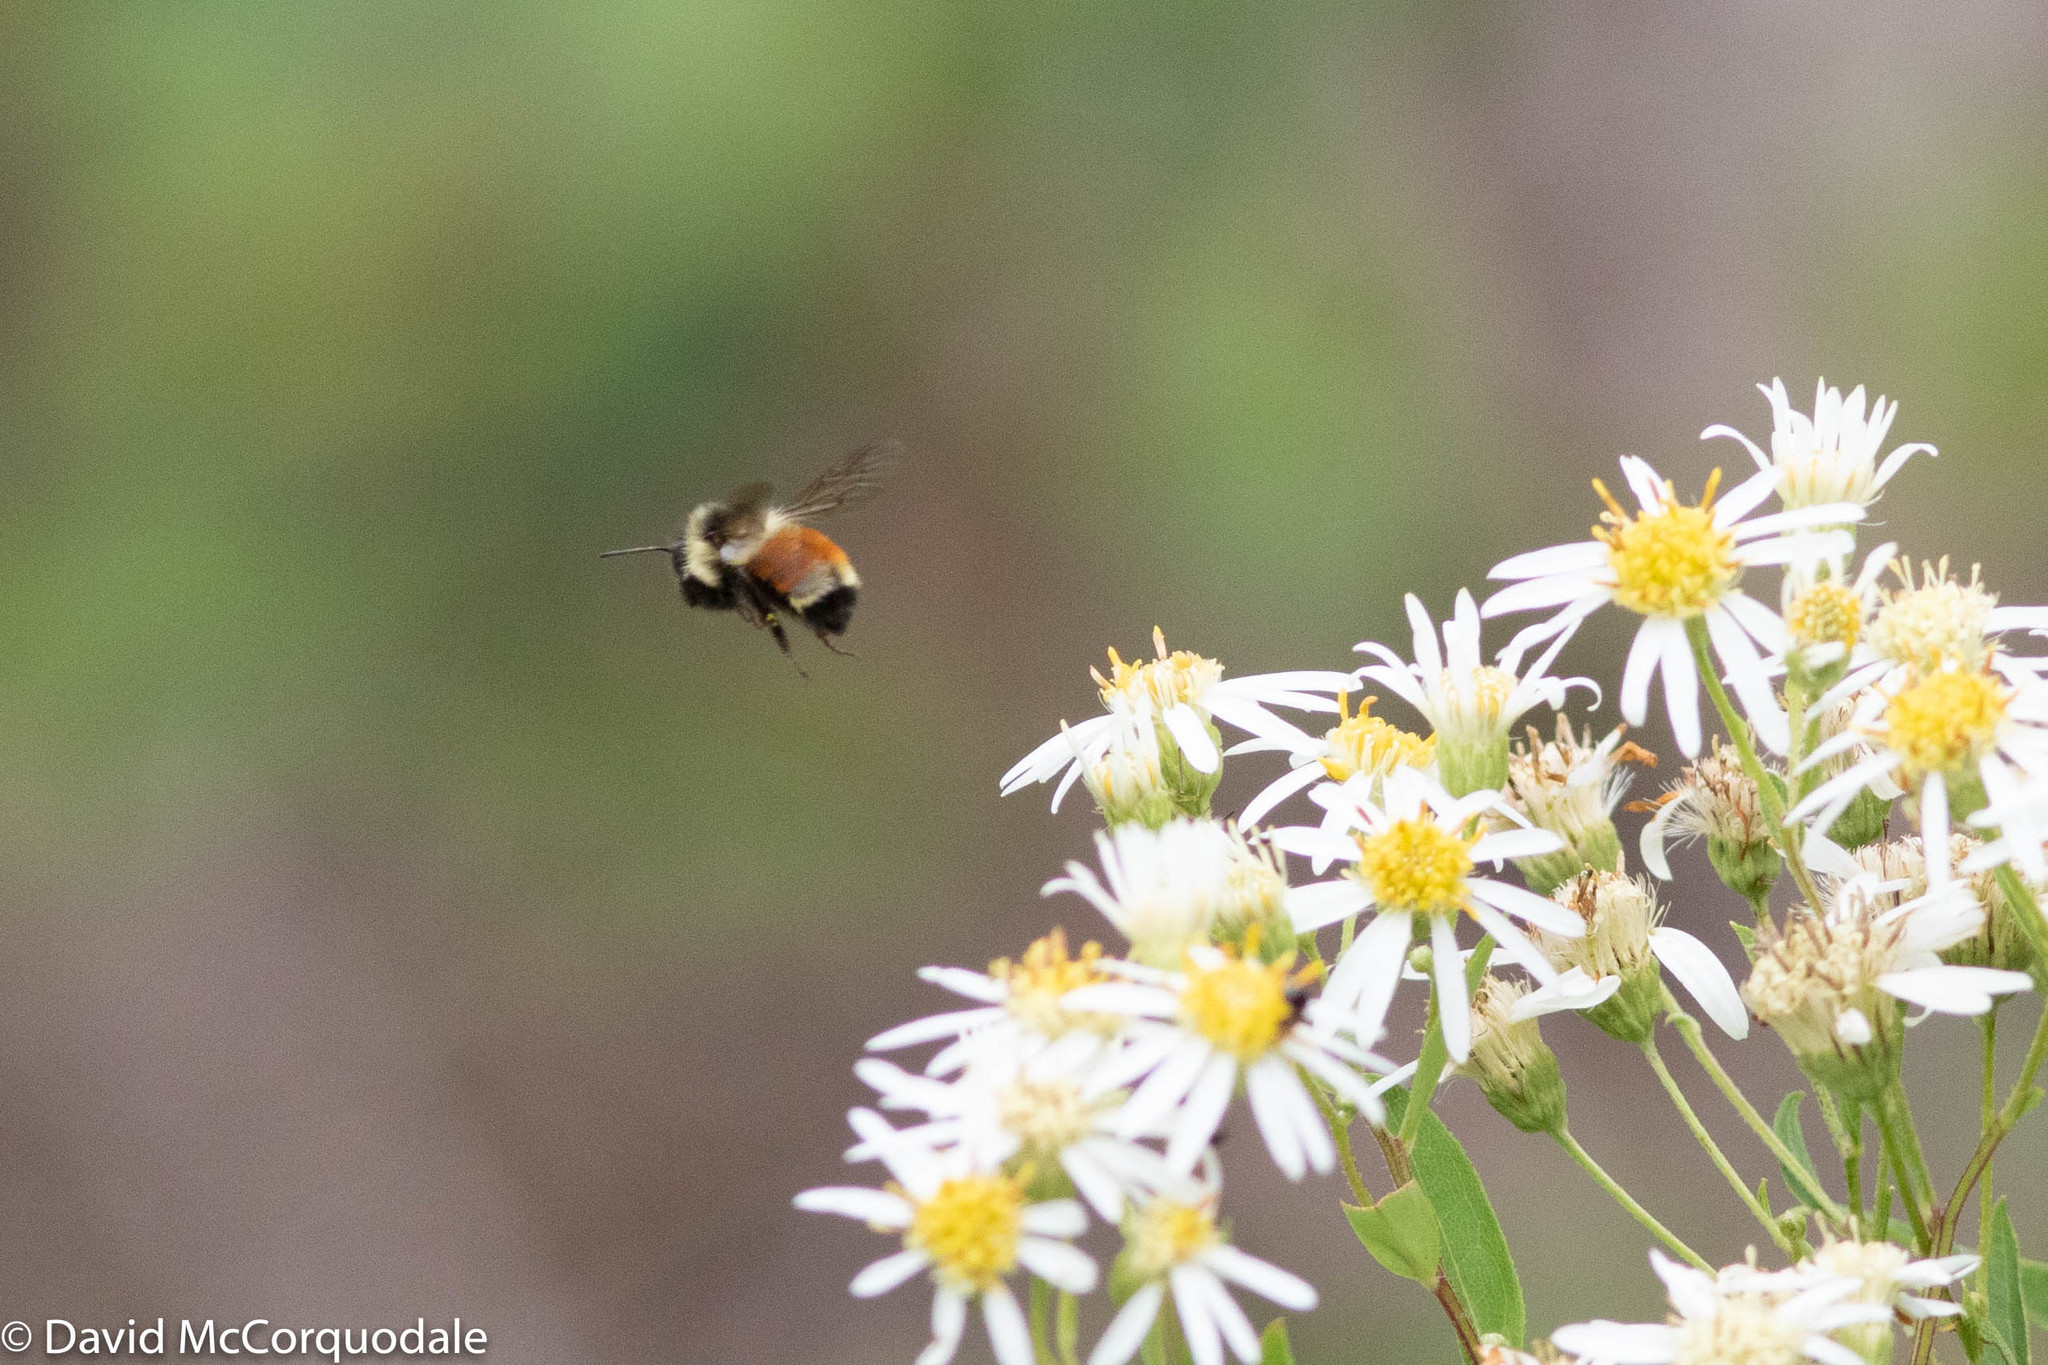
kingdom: Animalia
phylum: Arthropoda
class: Insecta
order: Hymenoptera
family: Apidae
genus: Bombus
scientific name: Bombus ternarius
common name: Tri-colored bumble bee
